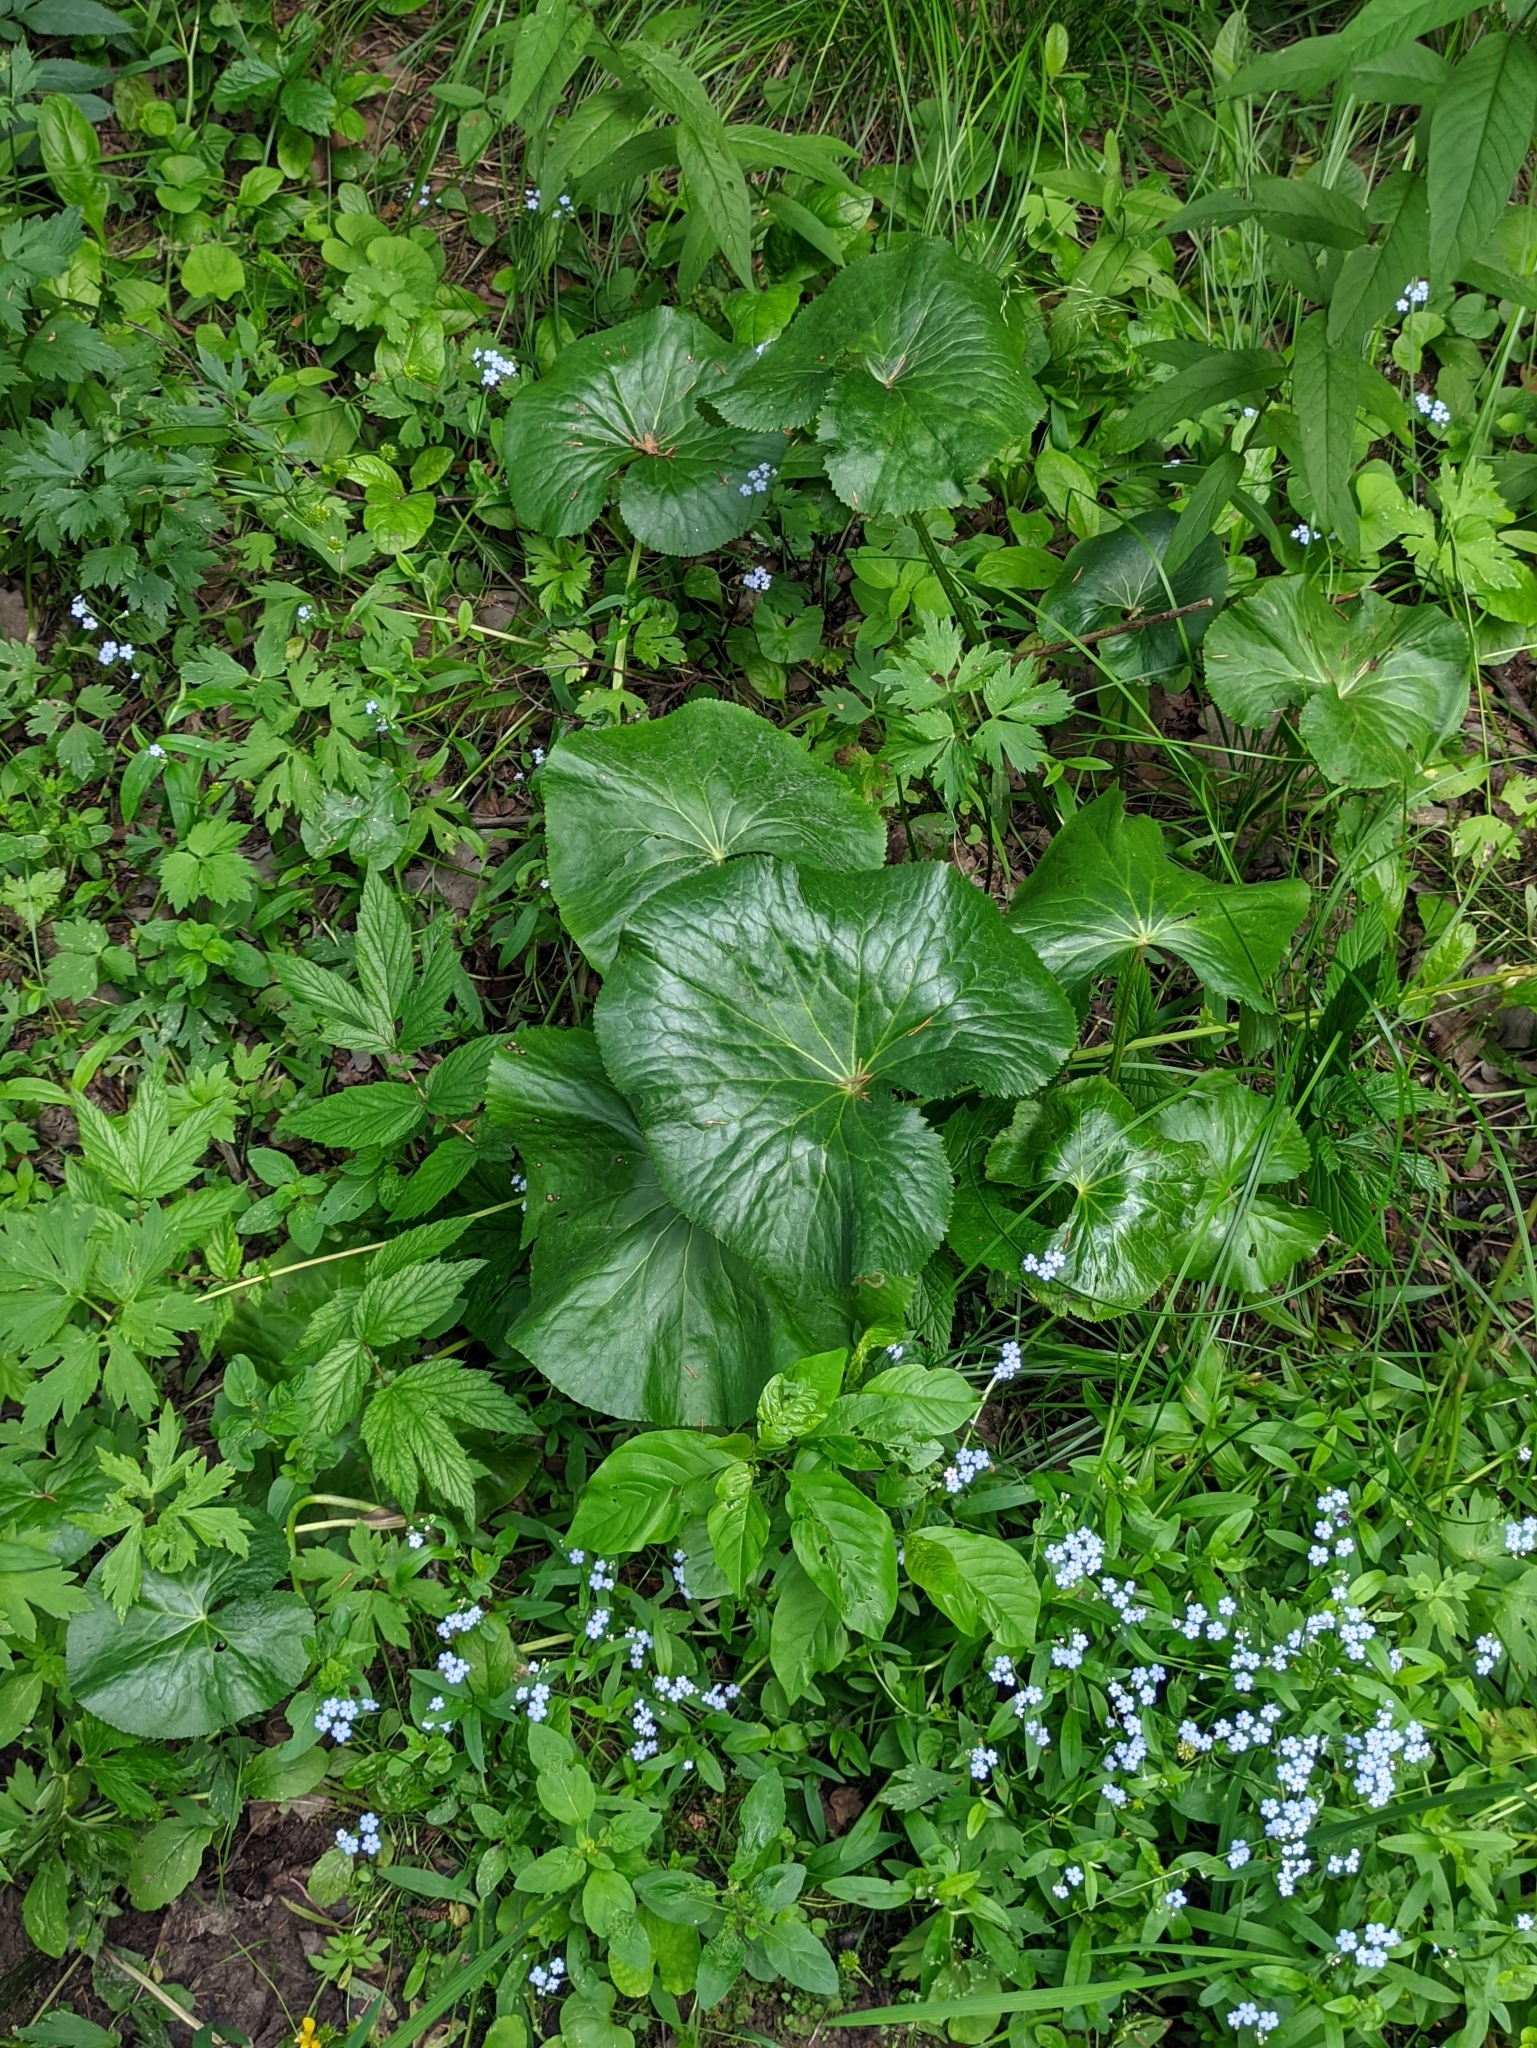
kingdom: Plantae
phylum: Tracheophyta
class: Magnoliopsida
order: Ranunculales
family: Ranunculaceae
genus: Caltha
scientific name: Caltha palustris
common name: Marsh marigold
